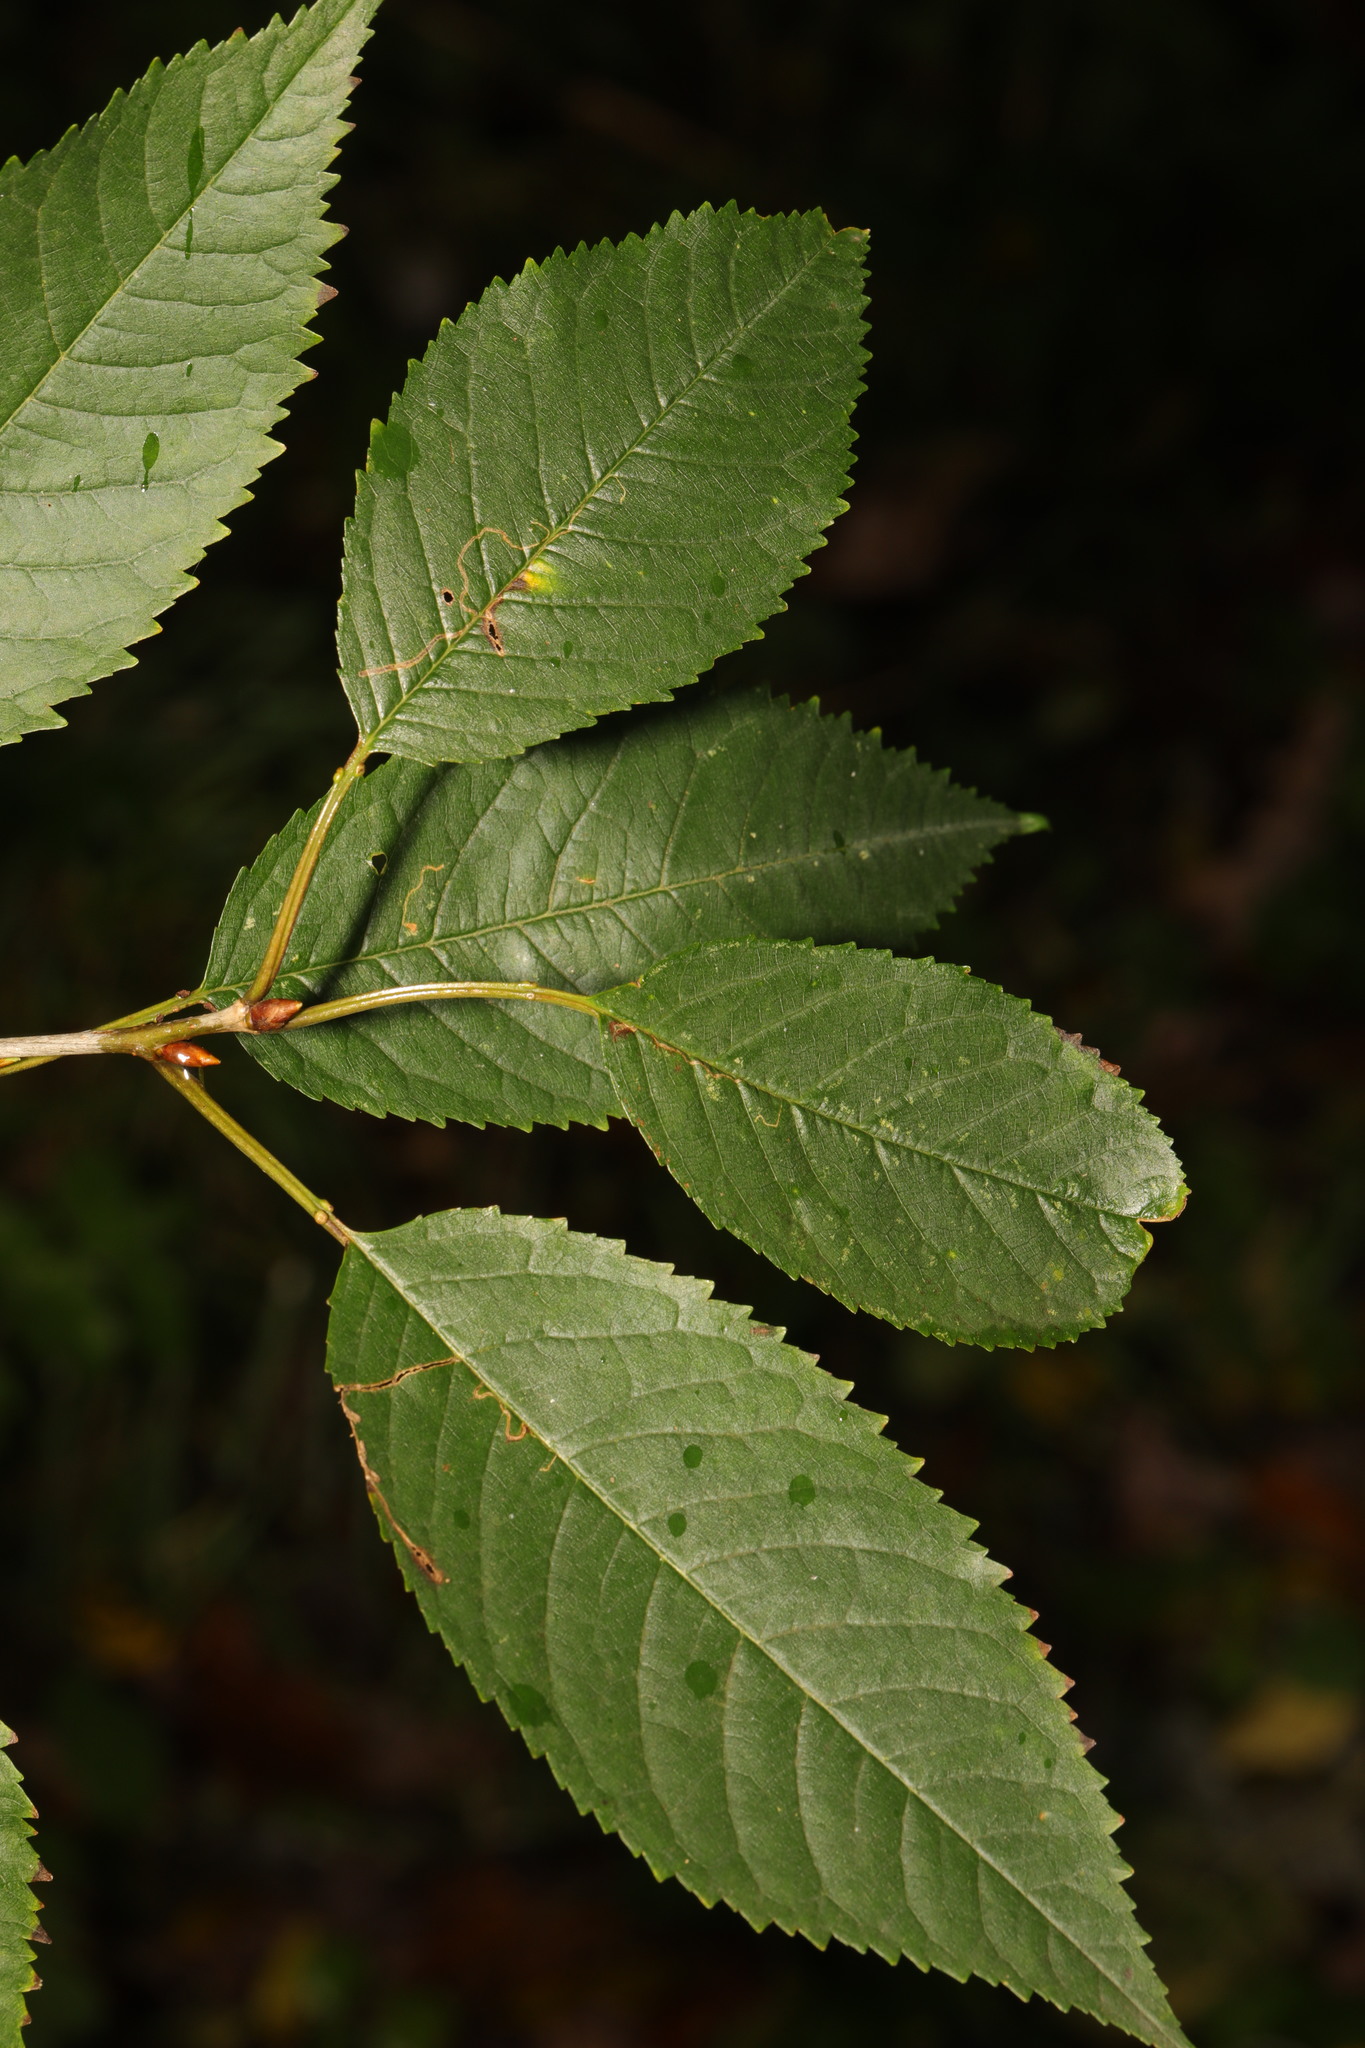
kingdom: Plantae
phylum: Tracheophyta
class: Magnoliopsida
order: Rosales
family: Rosaceae
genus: Prunus
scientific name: Prunus avium
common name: Sweet cherry
